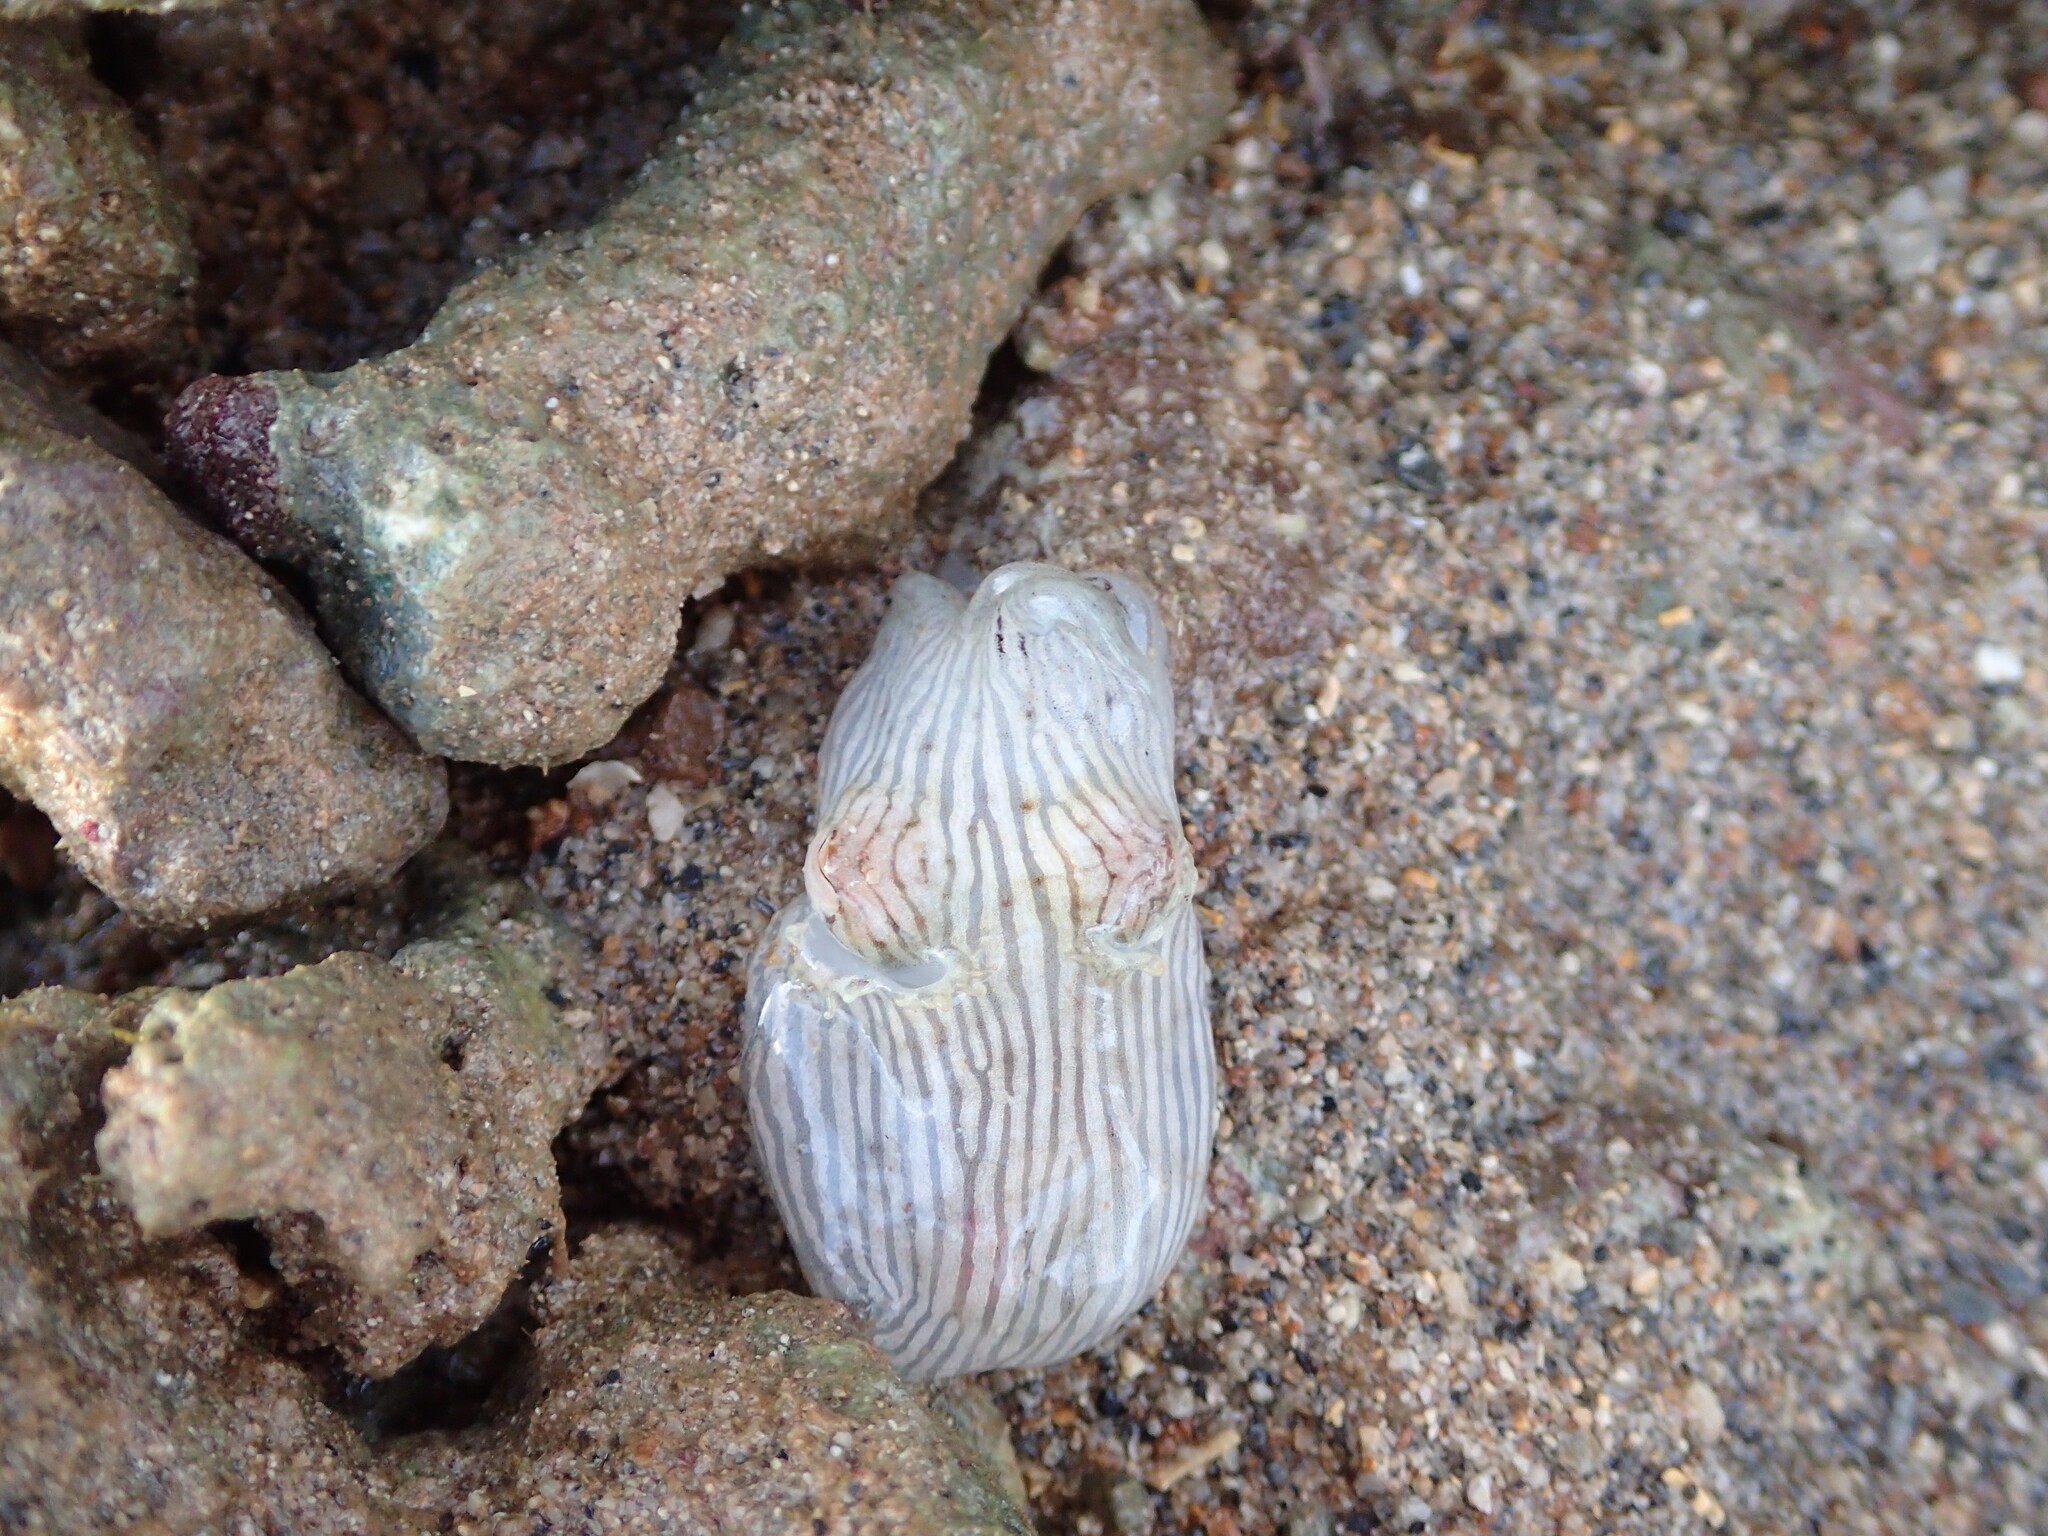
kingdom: Animalia
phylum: Mollusca
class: Cephalopoda
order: Sepiida
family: Sepiadariidae
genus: Sepioloidea
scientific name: Sepioloidea lineolata
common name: Striped pyjama squid
